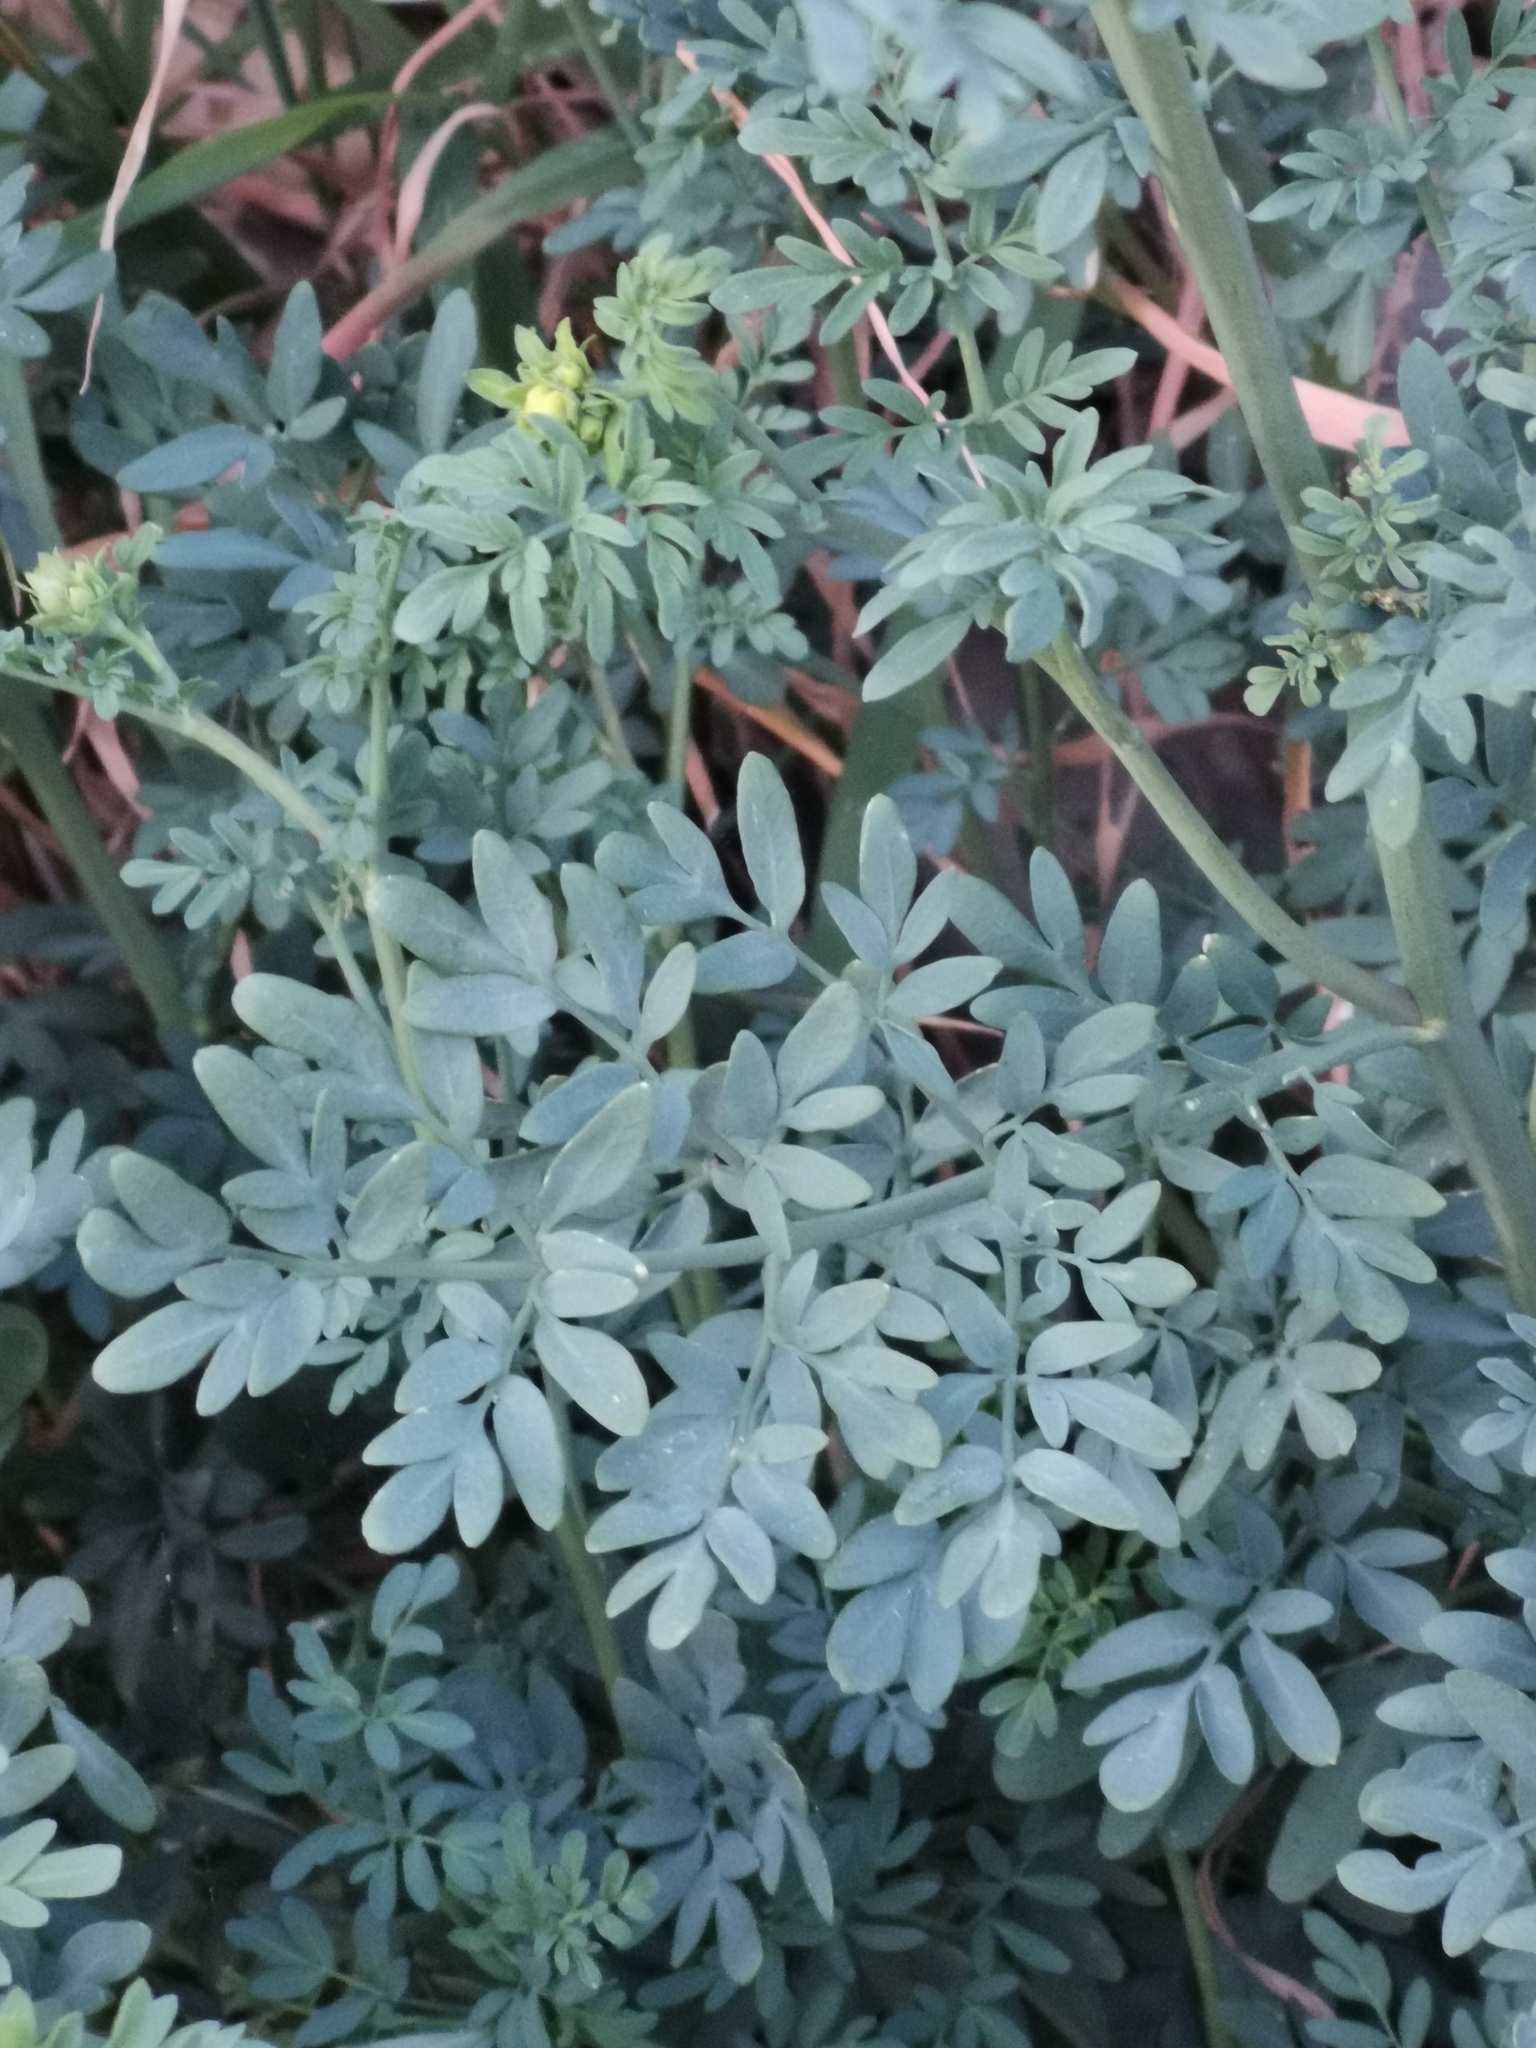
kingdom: Plantae
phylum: Tracheophyta
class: Magnoliopsida
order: Sapindales
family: Rutaceae
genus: Ruta
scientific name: Ruta chalepensis
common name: Fringed rue
